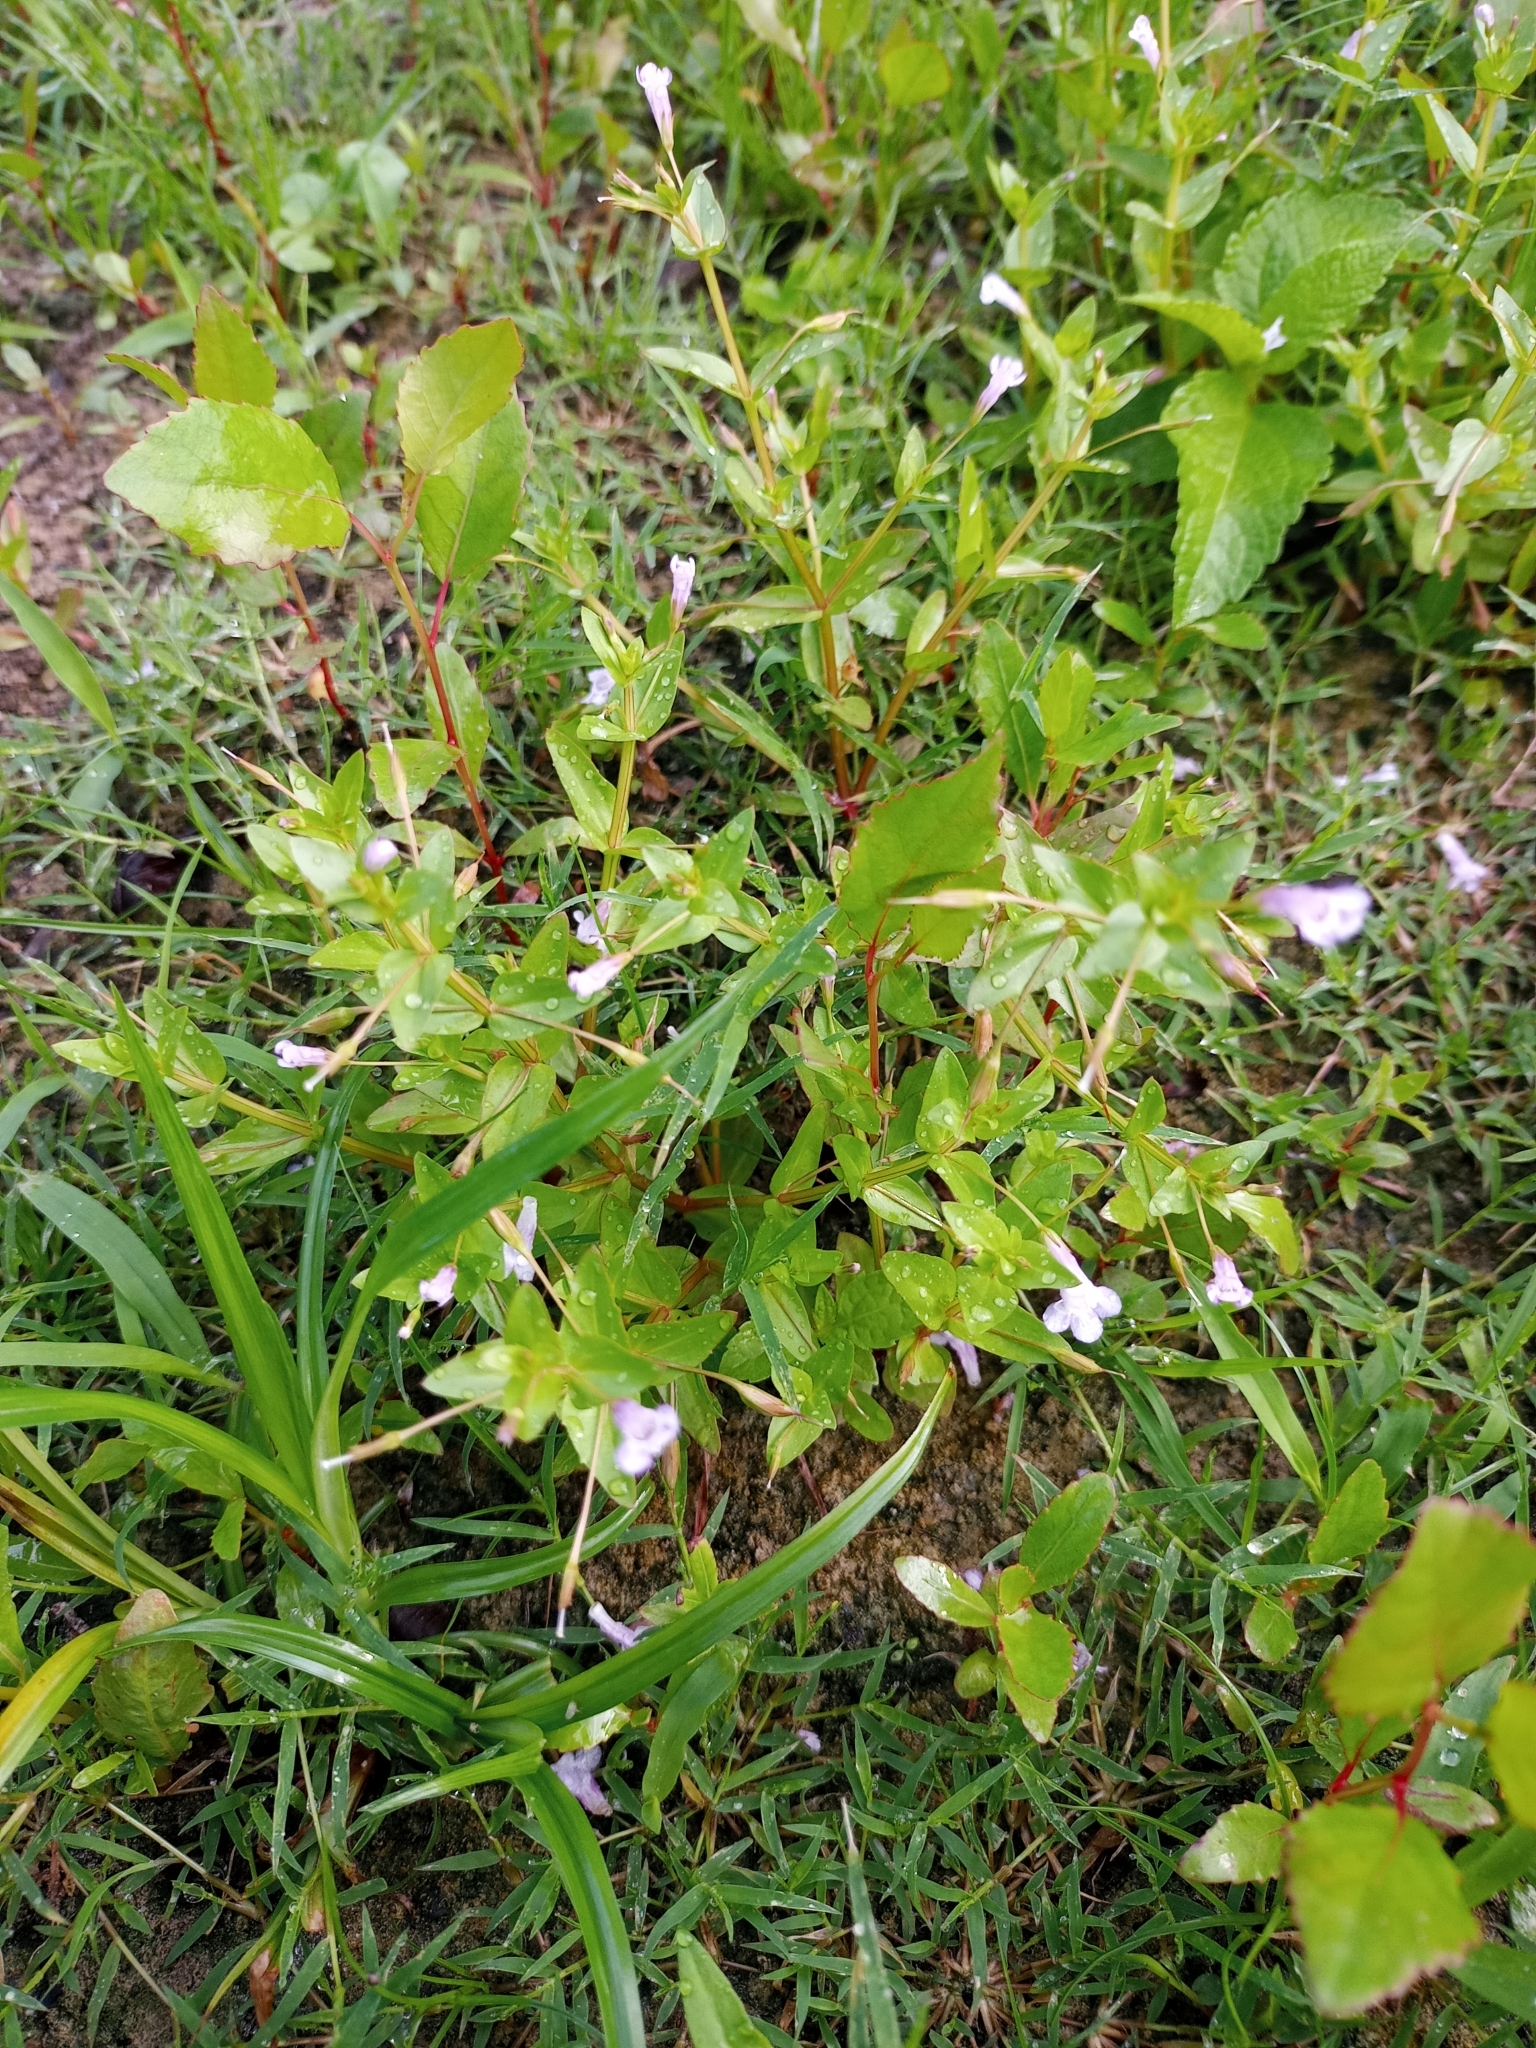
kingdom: Plantae
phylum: Tracheophyta
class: Magnoliopsida
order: Lamiales
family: Linderniaceae
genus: Lindernia
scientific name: Lindernia dubia
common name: Annual false pimpernel
